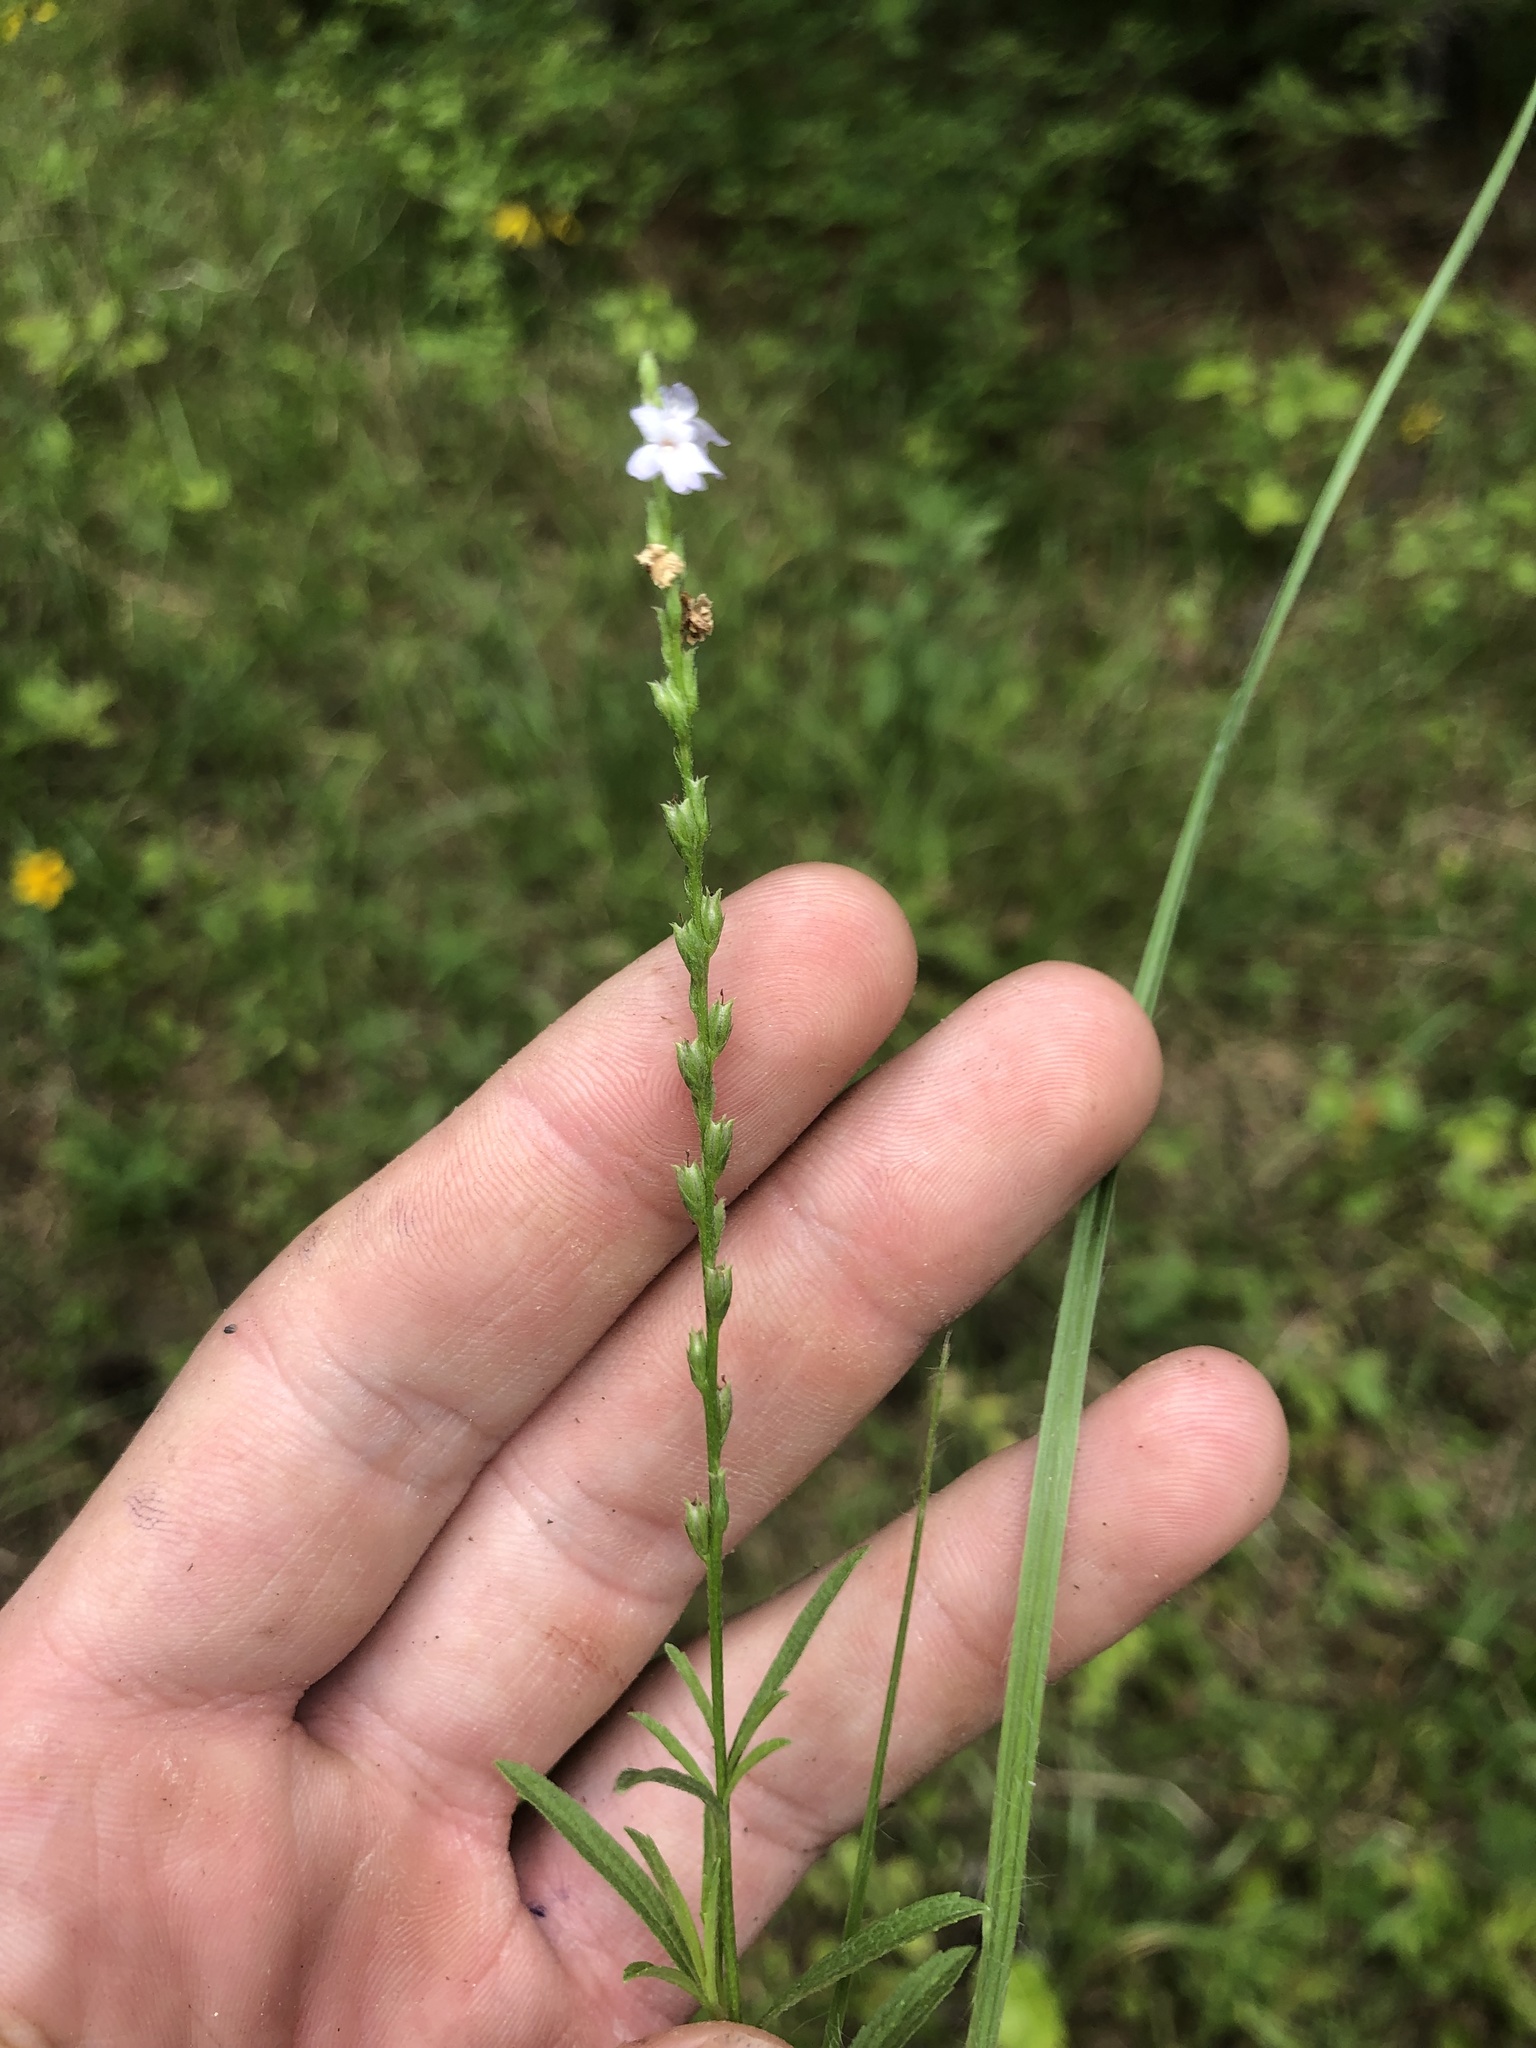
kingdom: Plantae
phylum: Tracheophyta
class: Magnoliopsida
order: Lamiales
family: Verbenaceae
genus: Verbena
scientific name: Verbena simplex
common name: Narrow-leaf vervain
